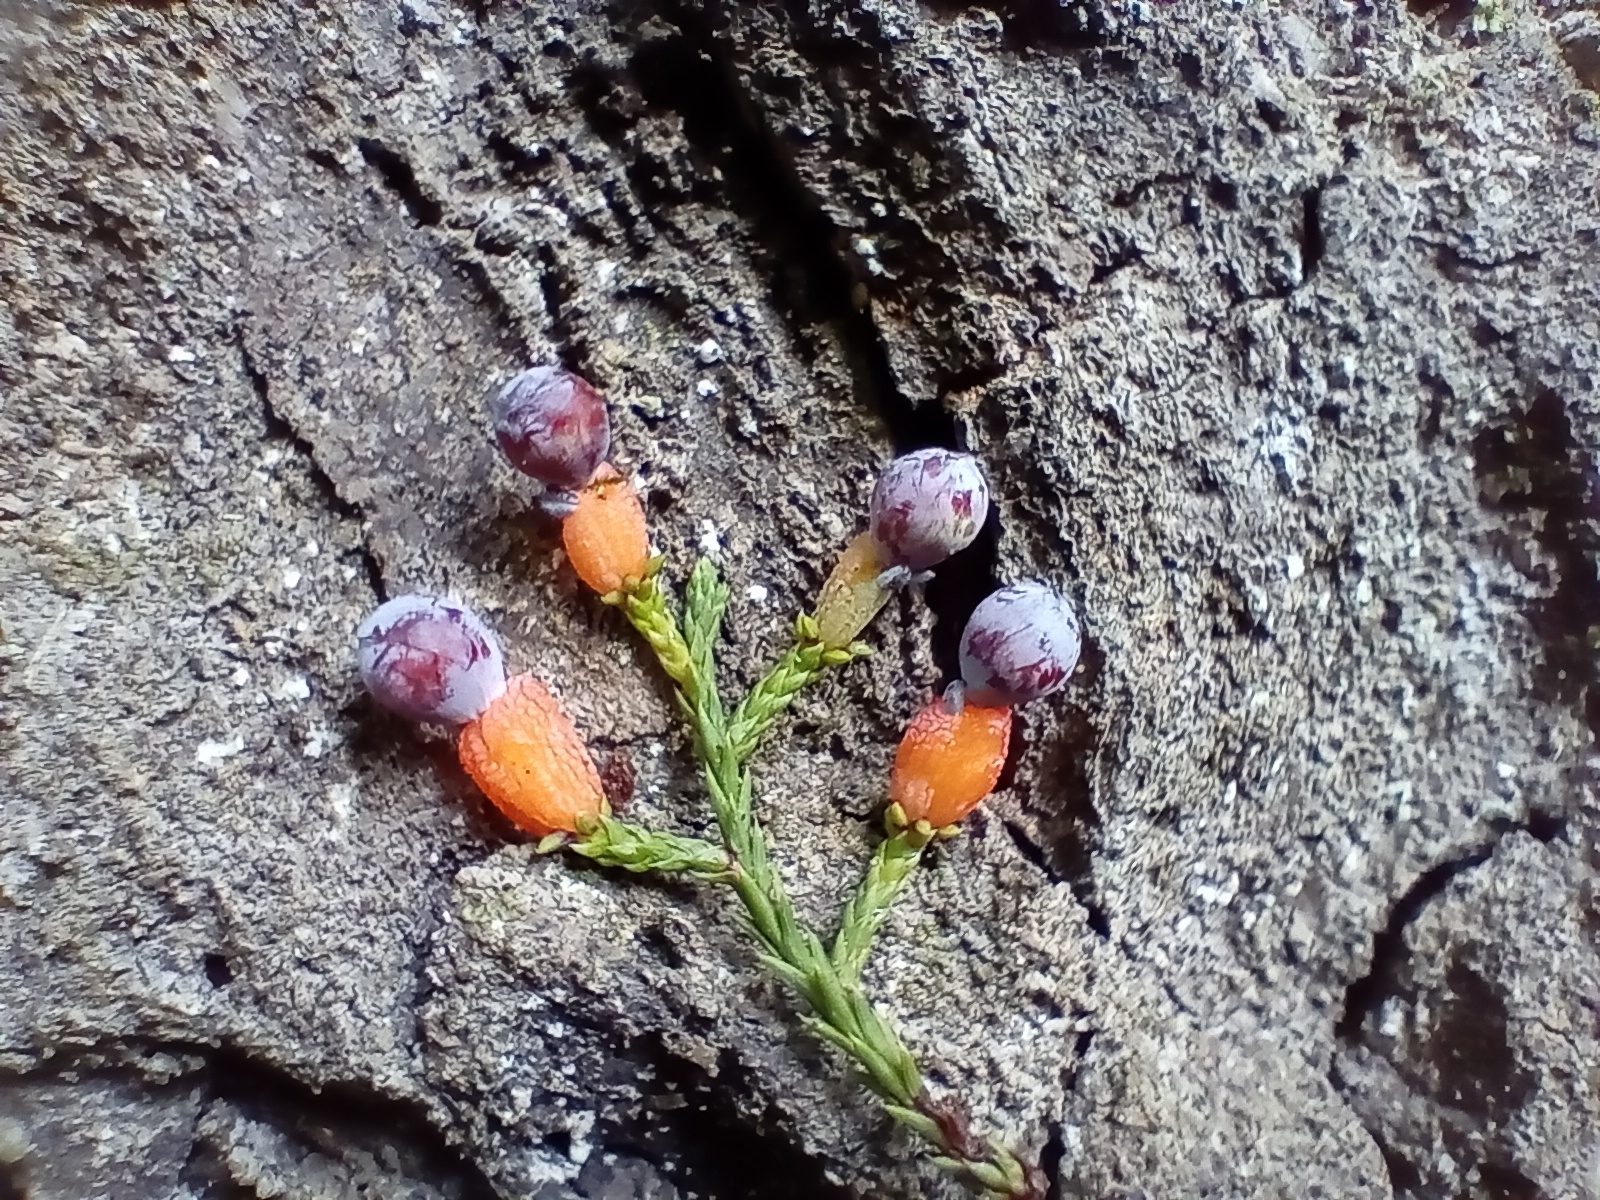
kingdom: Plantae
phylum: Tracheophyta
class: Pinopsida
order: Pinales
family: Podocarpaceae
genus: Dacrycarpus
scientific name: Dacrycarpus dacrydioides
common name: White pine
